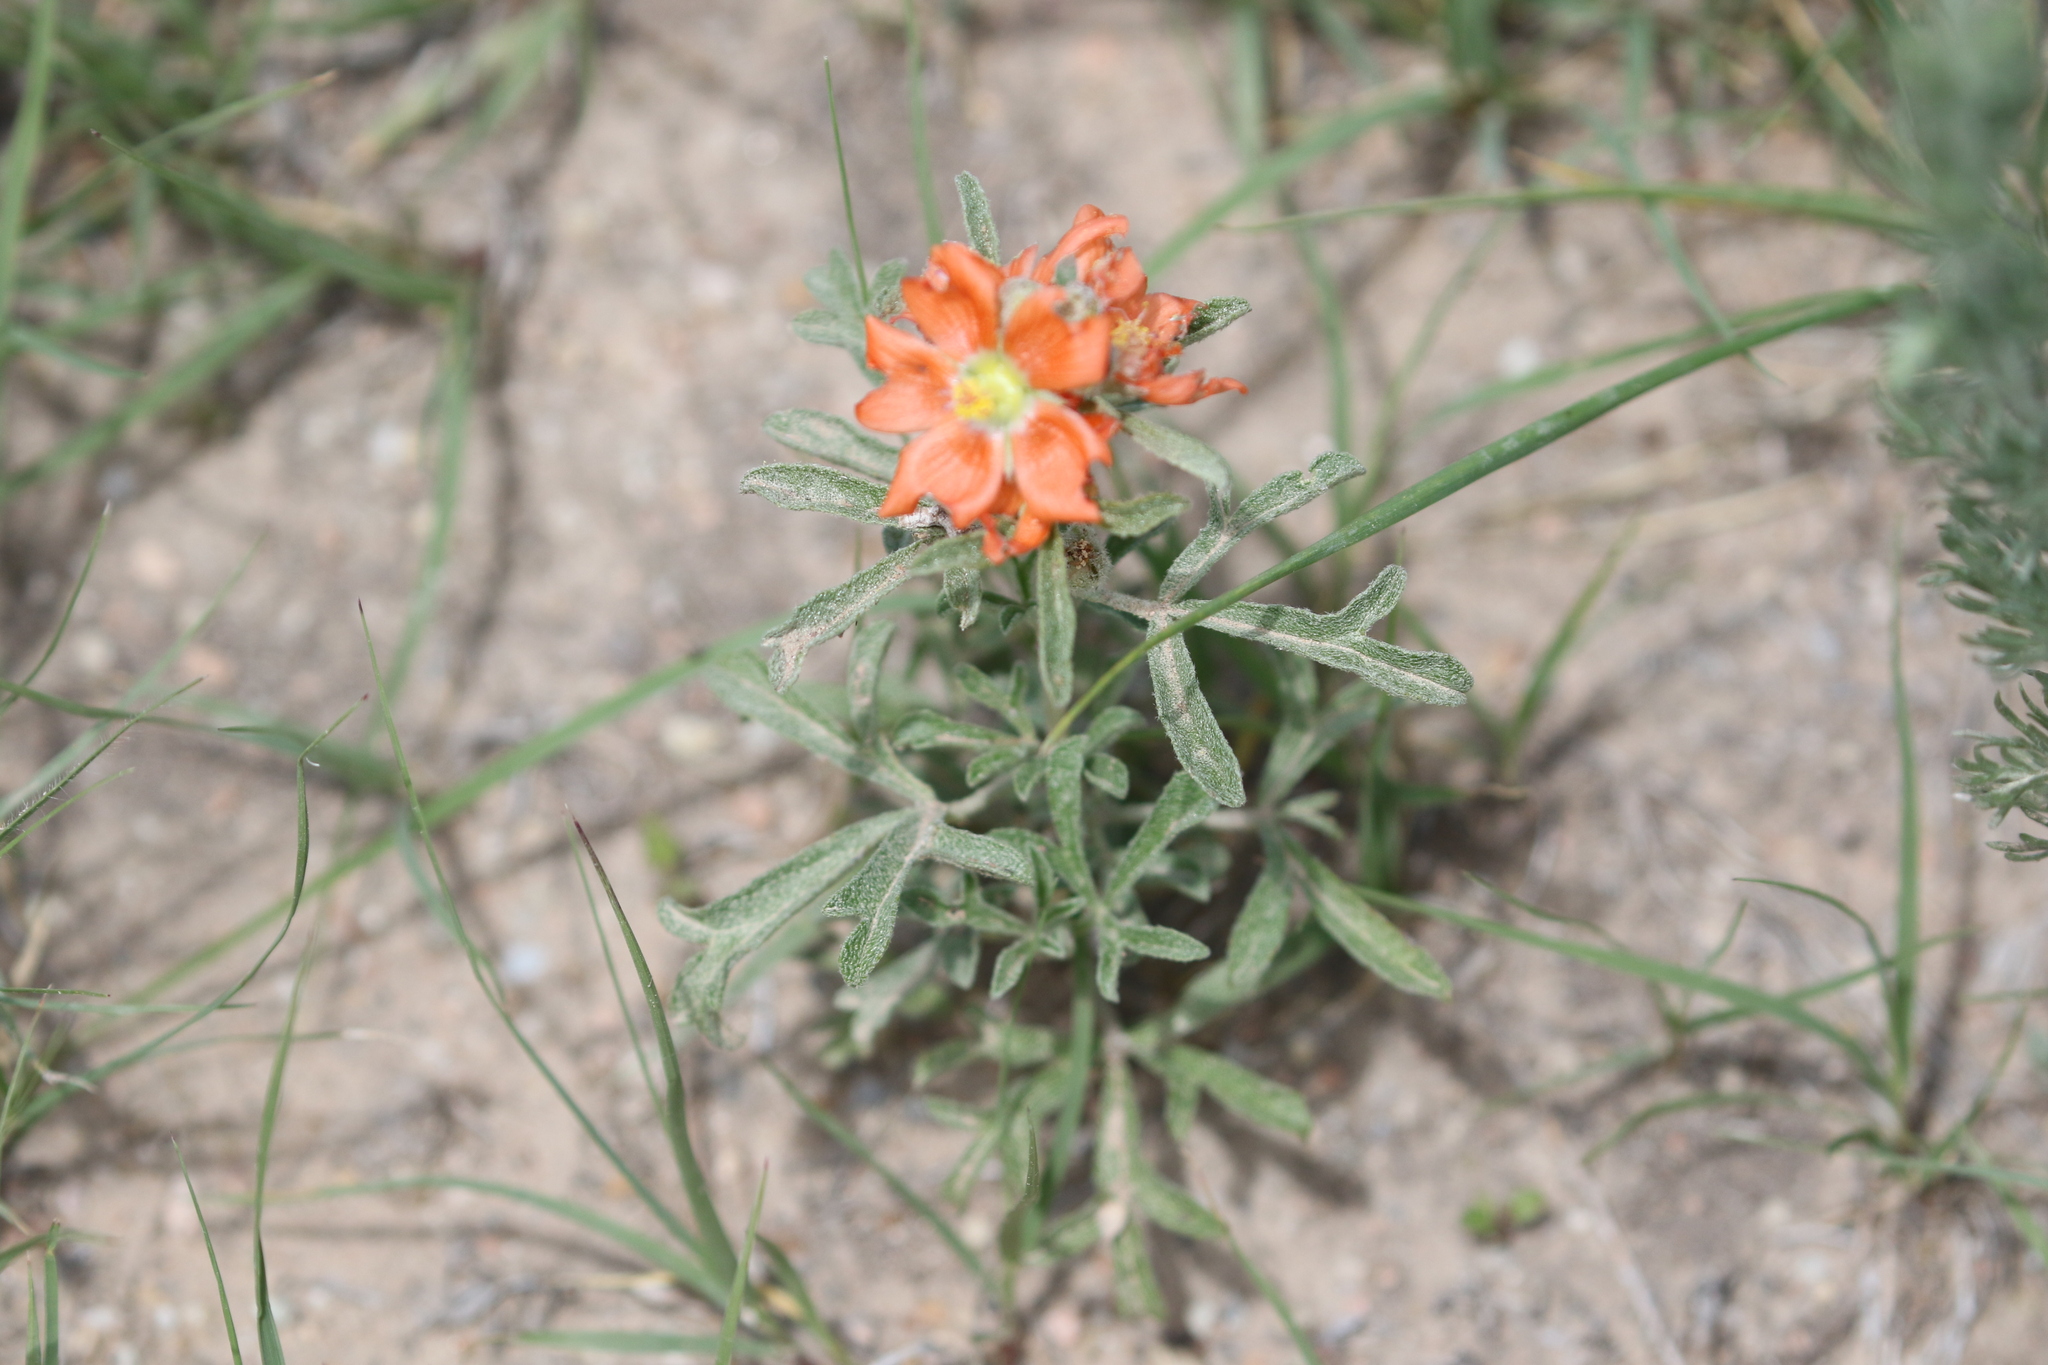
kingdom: Plantae
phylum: Tracheophyta
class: Magnoliopsida
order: Malvales
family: Malvaceae
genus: Sphaeralcea
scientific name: Sphaeralcea coccinea
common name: Moss-rose
